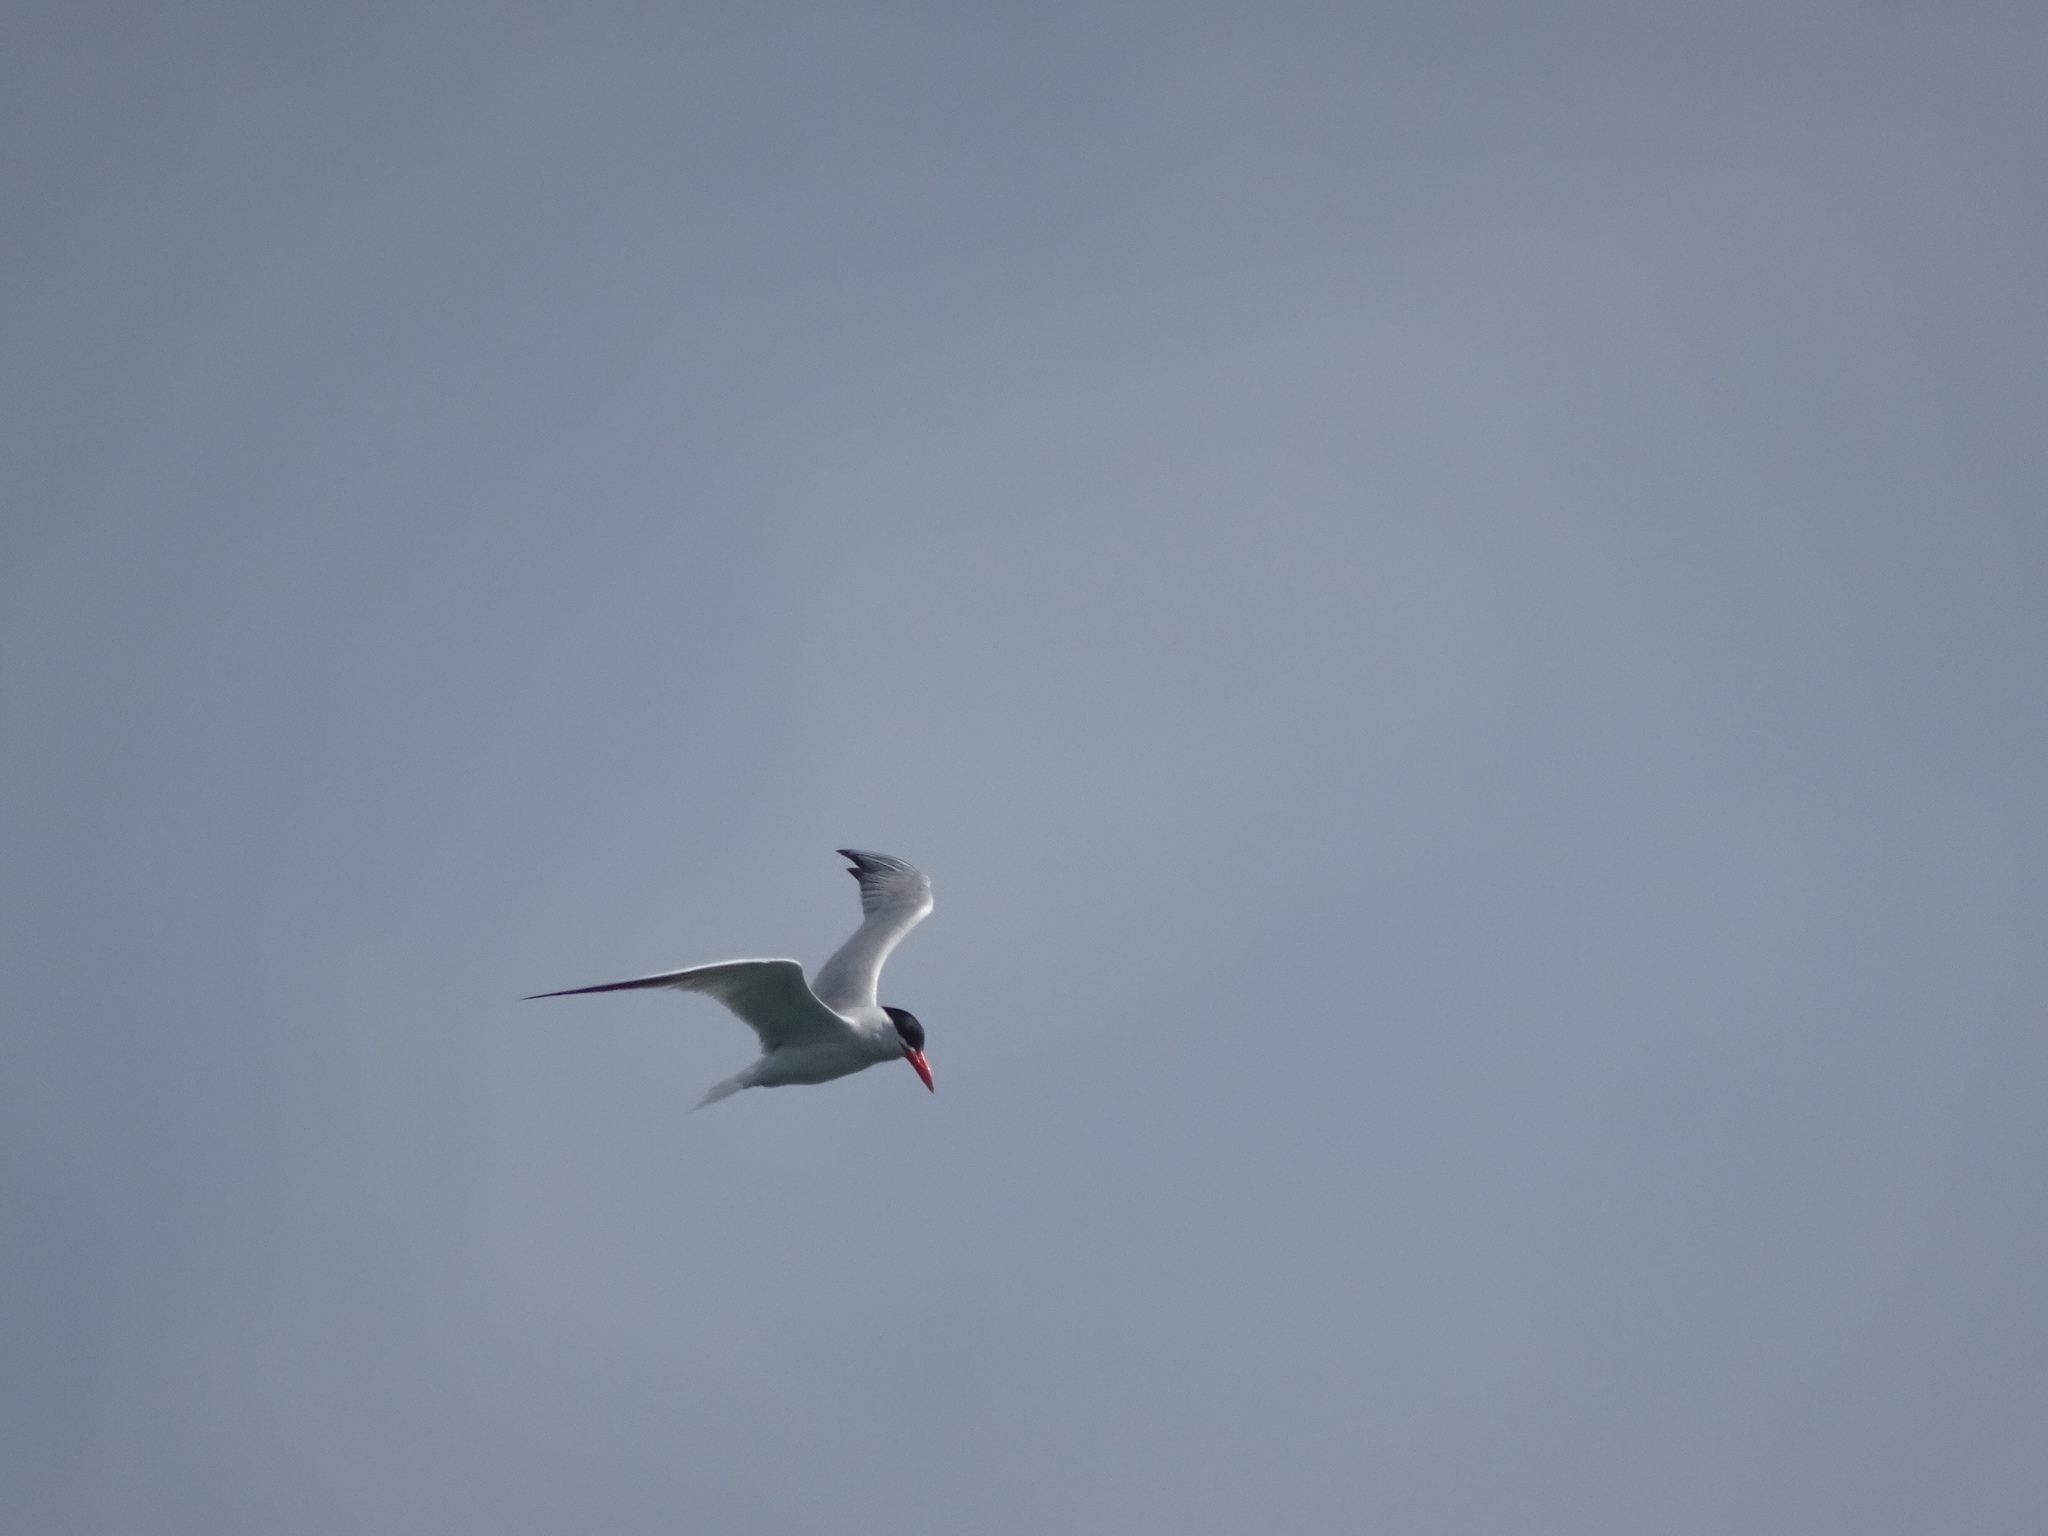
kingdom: Animalia
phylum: Chordata
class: Aves
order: Charadriiformes
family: Laridae
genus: Hydroprogne
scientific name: Hydroprogne caspia
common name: Caspian tern
